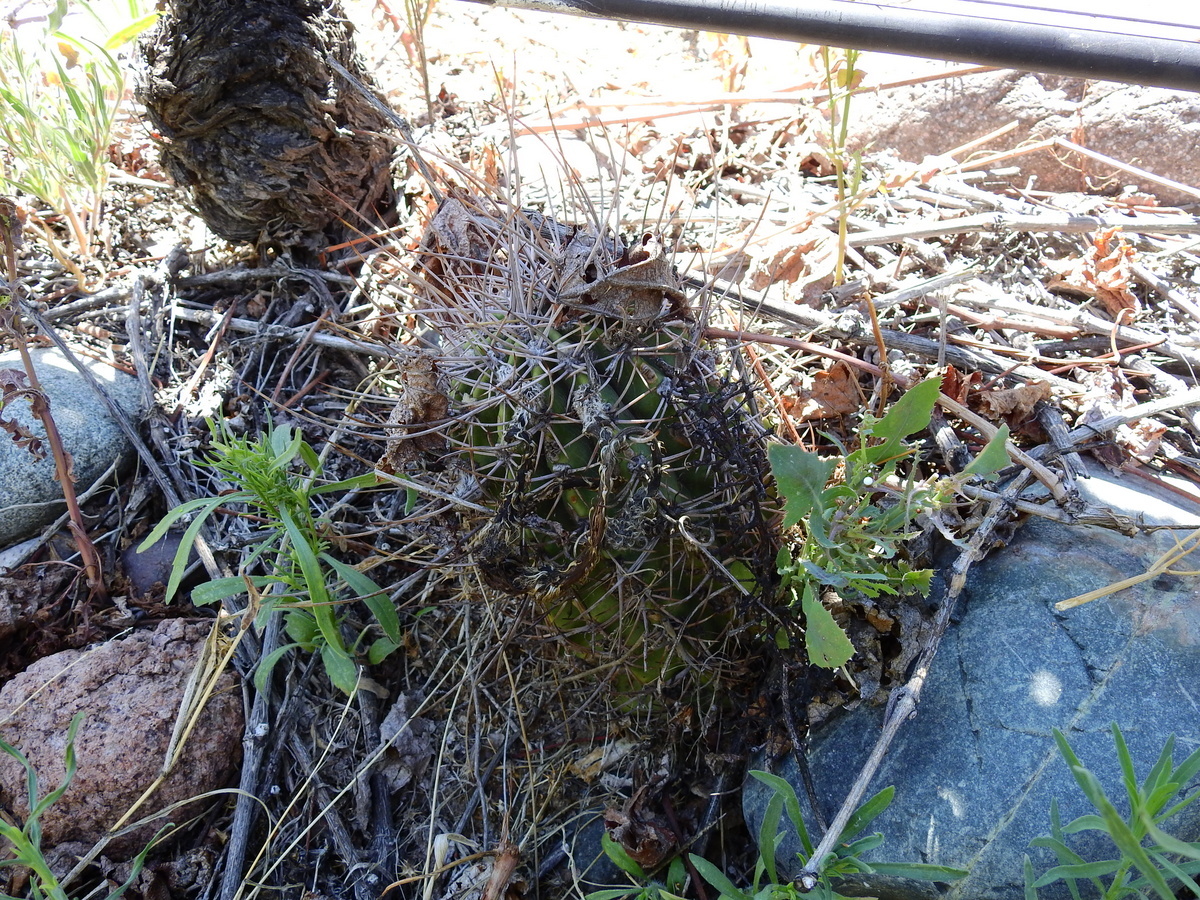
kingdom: Plantae
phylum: Tracheophyta
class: Magnoliopsida
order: Caryophyllales
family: Cactaceae
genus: Acanthocalycium
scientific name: Acanthocalycium leucanthum
